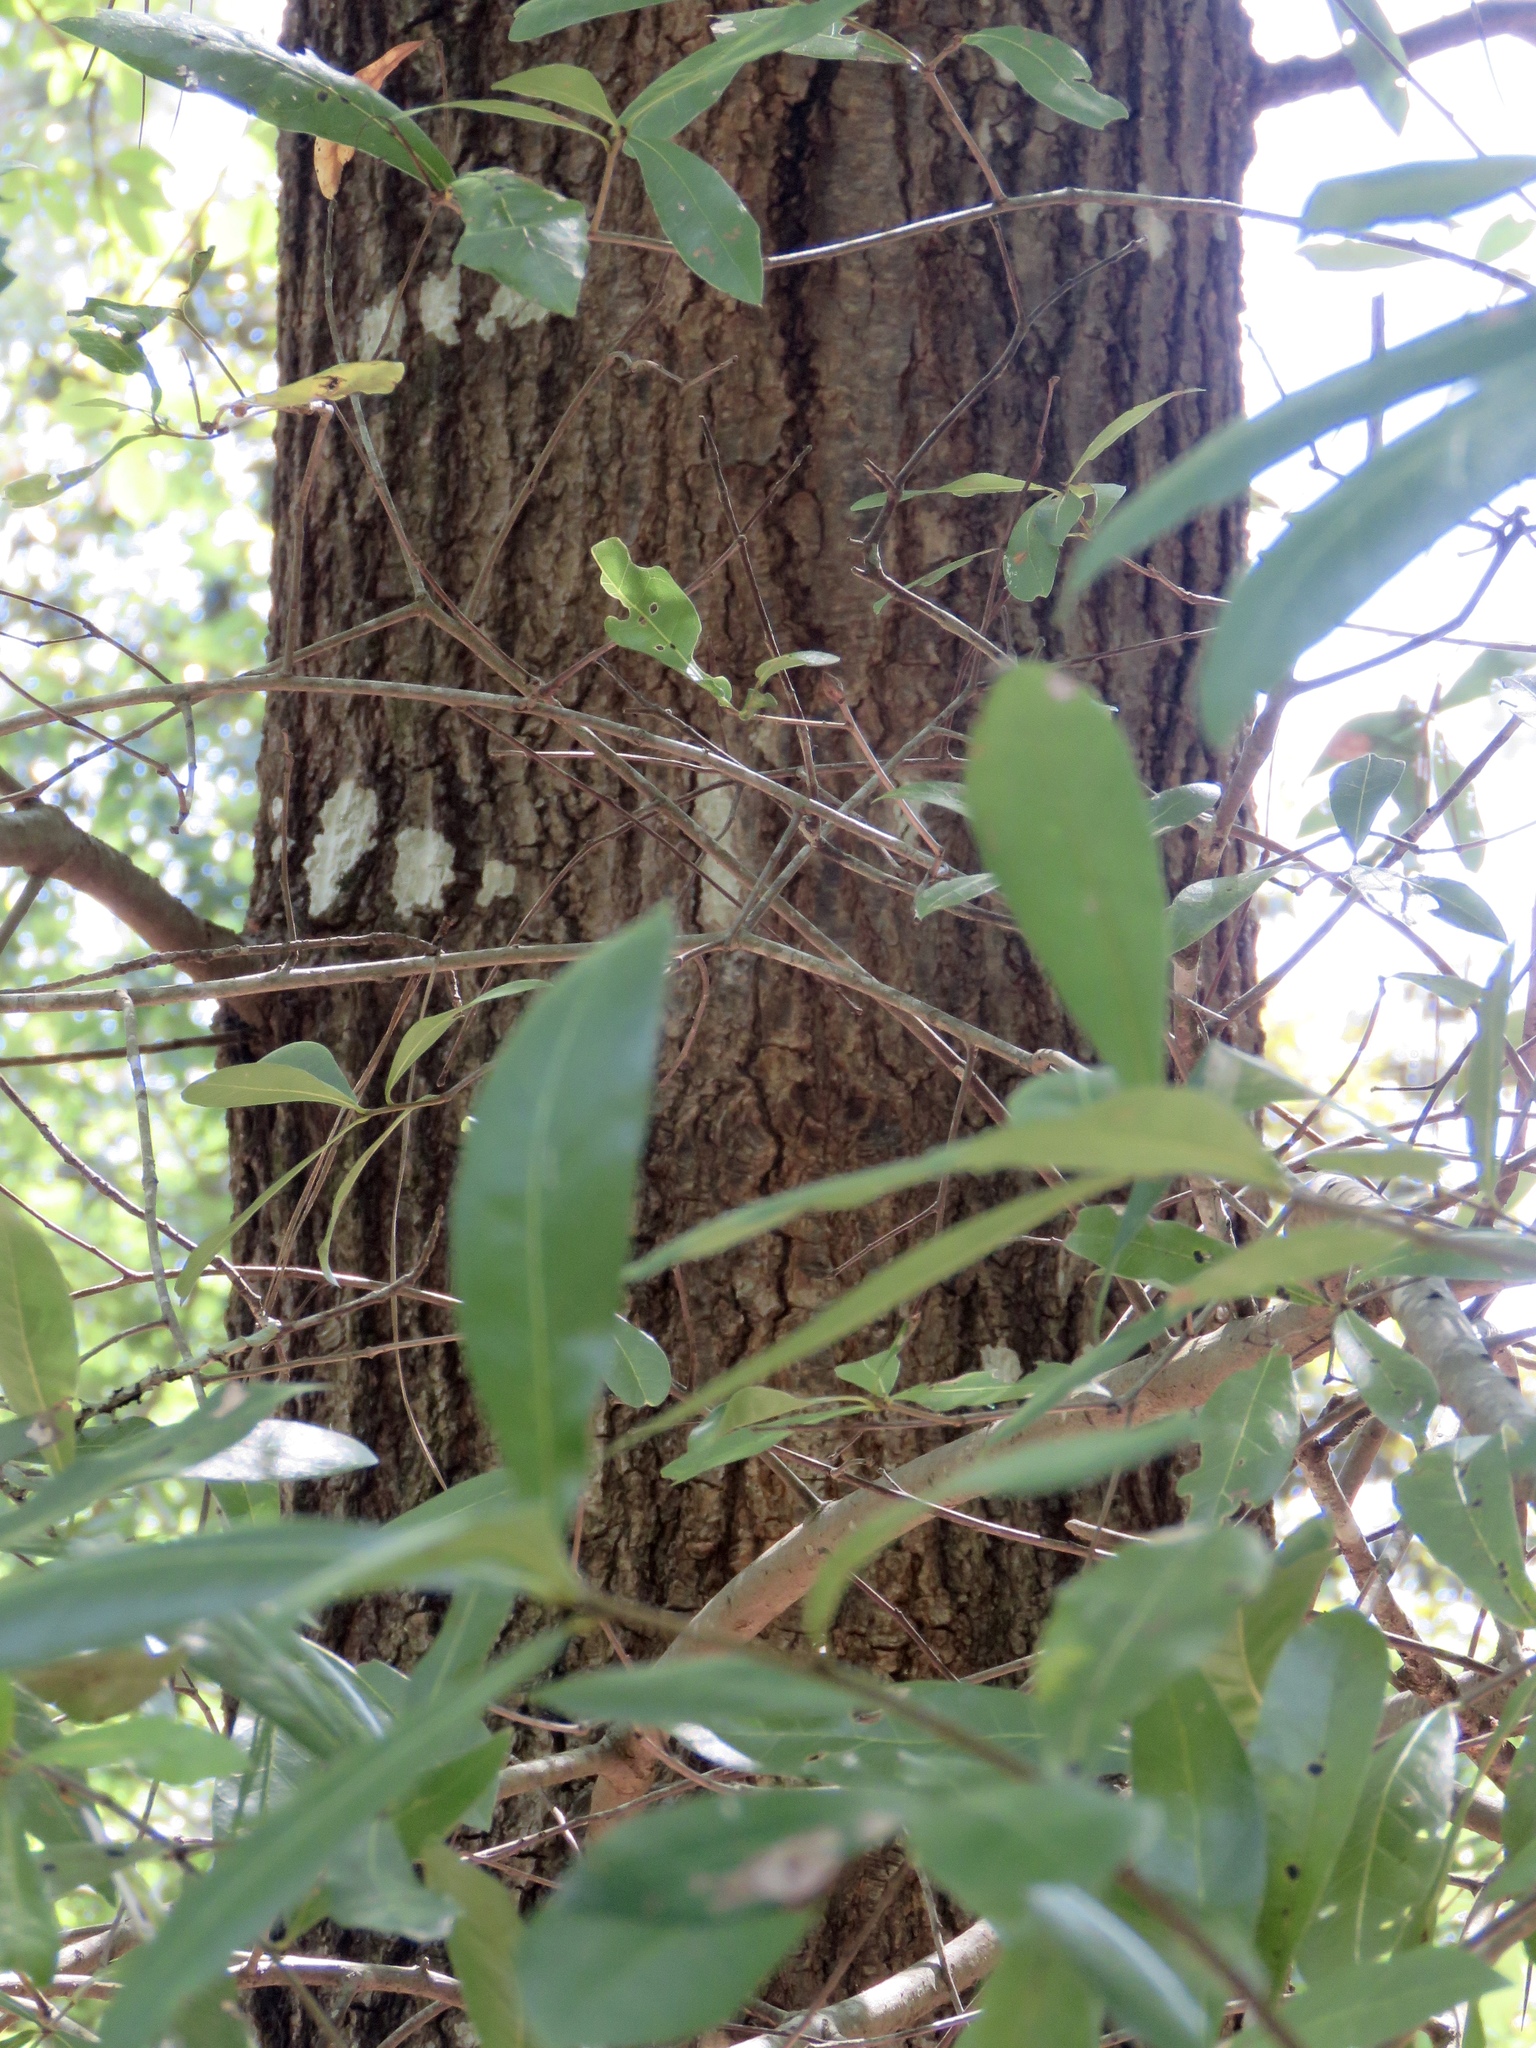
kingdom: Plantae
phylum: Tracheophyta
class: Magnoliopsida
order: Fagales
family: Fagaceae
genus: Quercus
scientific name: Quercus phellos
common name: Willow oak
